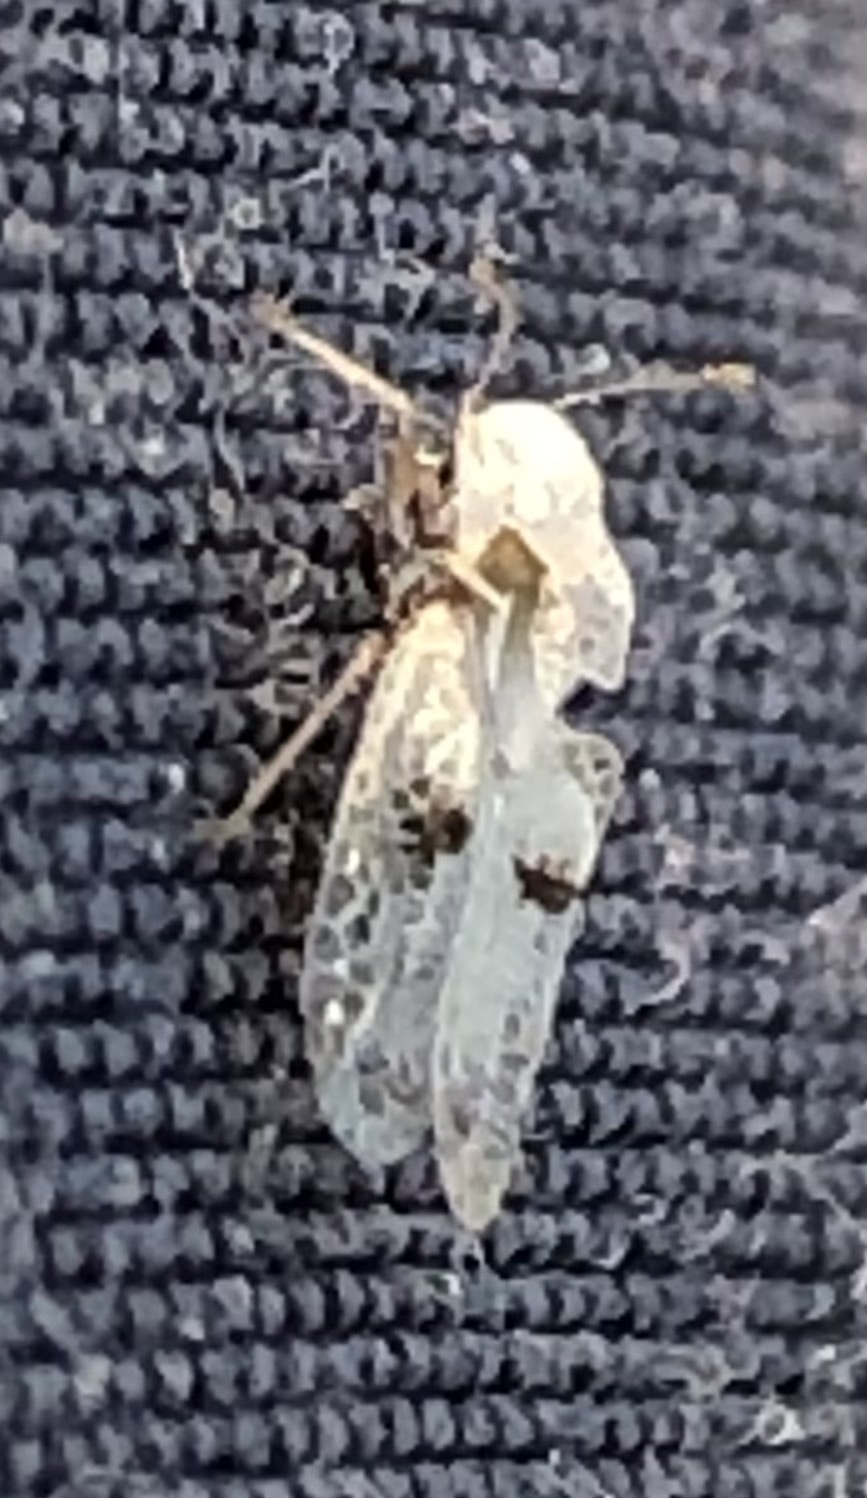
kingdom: Animalia
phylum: Arthropoda
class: Insecta
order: Hemiptera
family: Tingidae
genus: Corythucha
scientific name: Corythucha ciliata
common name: Sycamore lace bug
